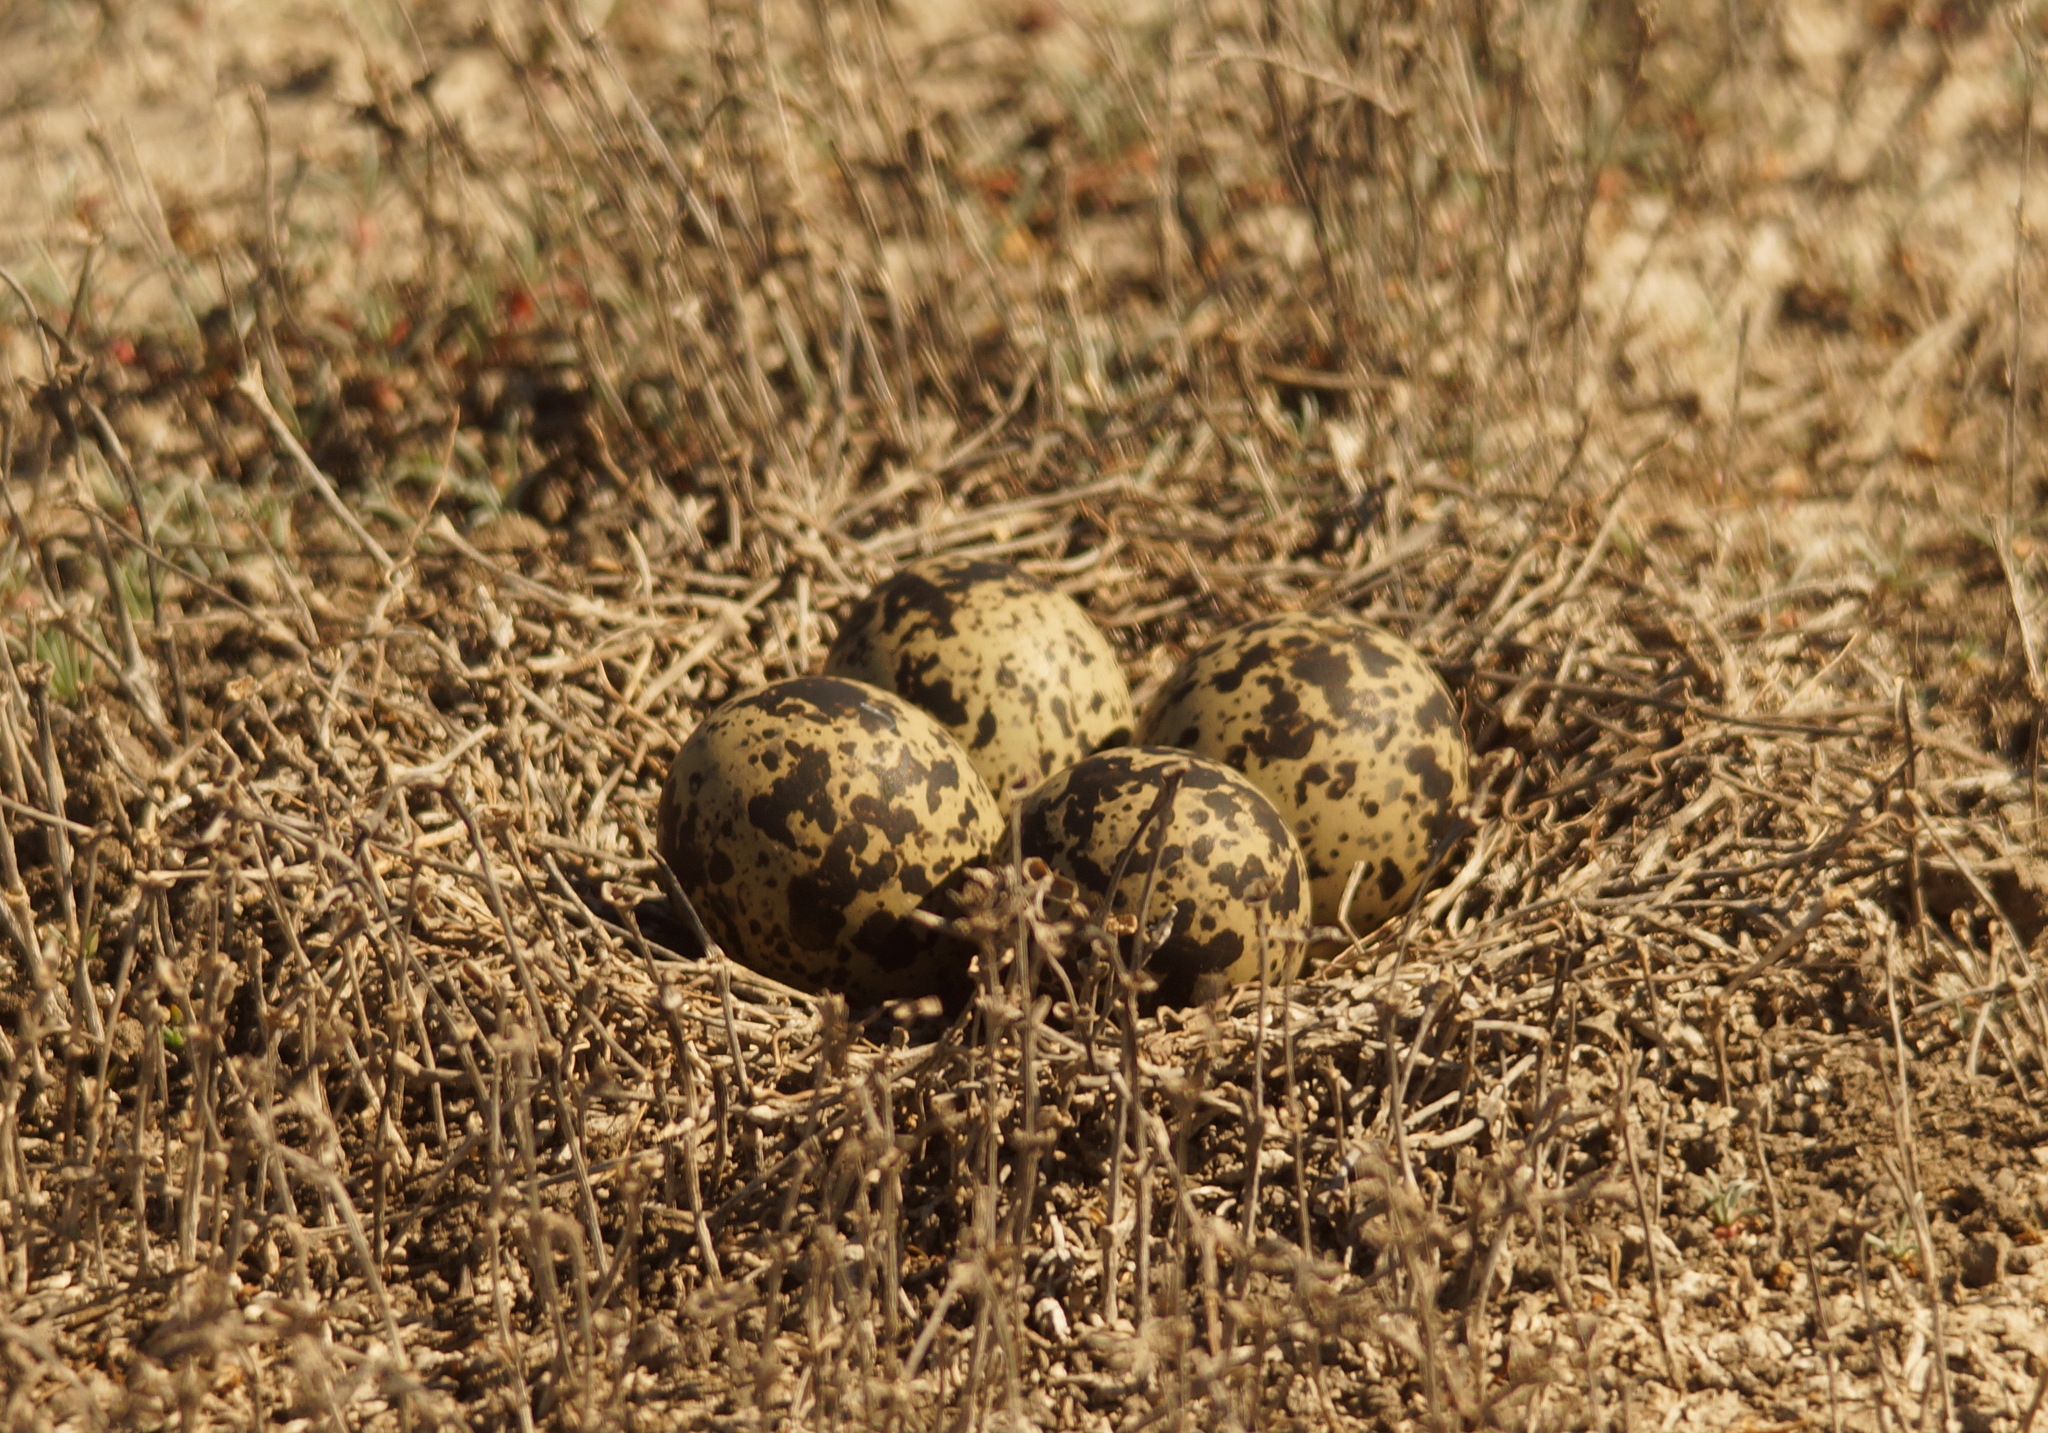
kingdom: Animalia
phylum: Chordata
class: Aves
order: Charadriiformes
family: Charadriidae
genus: Vanellus
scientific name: Vanellus vanellus
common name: Northern lapwing
